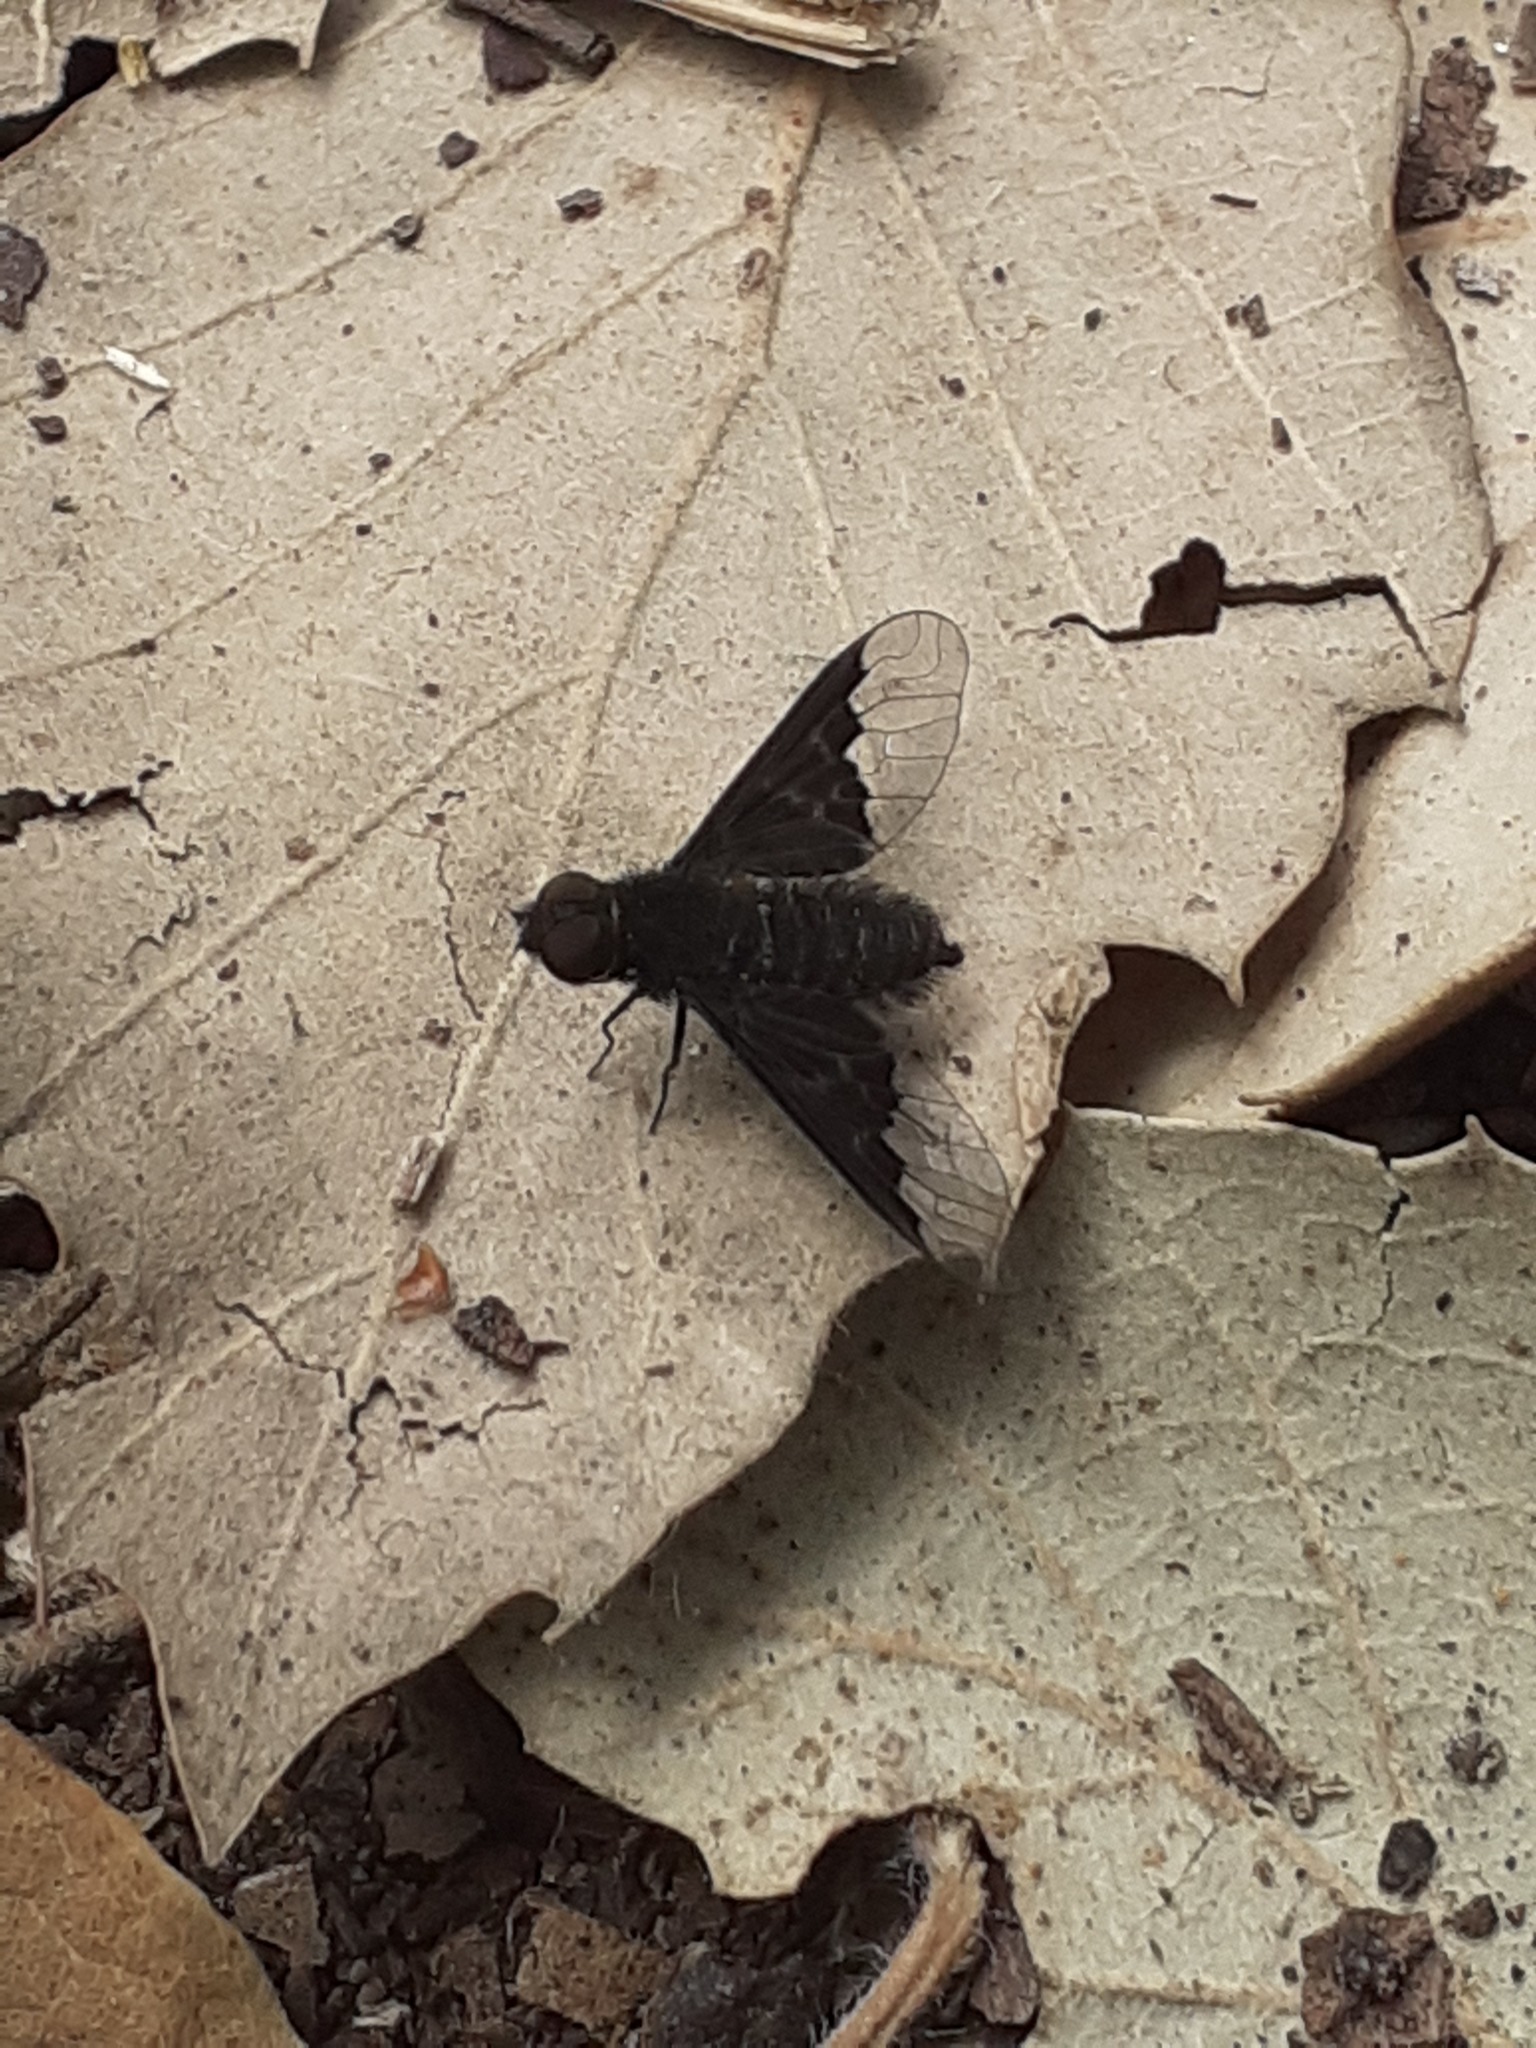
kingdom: Animalia
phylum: Arthropoda
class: Insecta
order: Diptera
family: Bombyliidae
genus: Hemipenthes
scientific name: Hemipenthes morio
